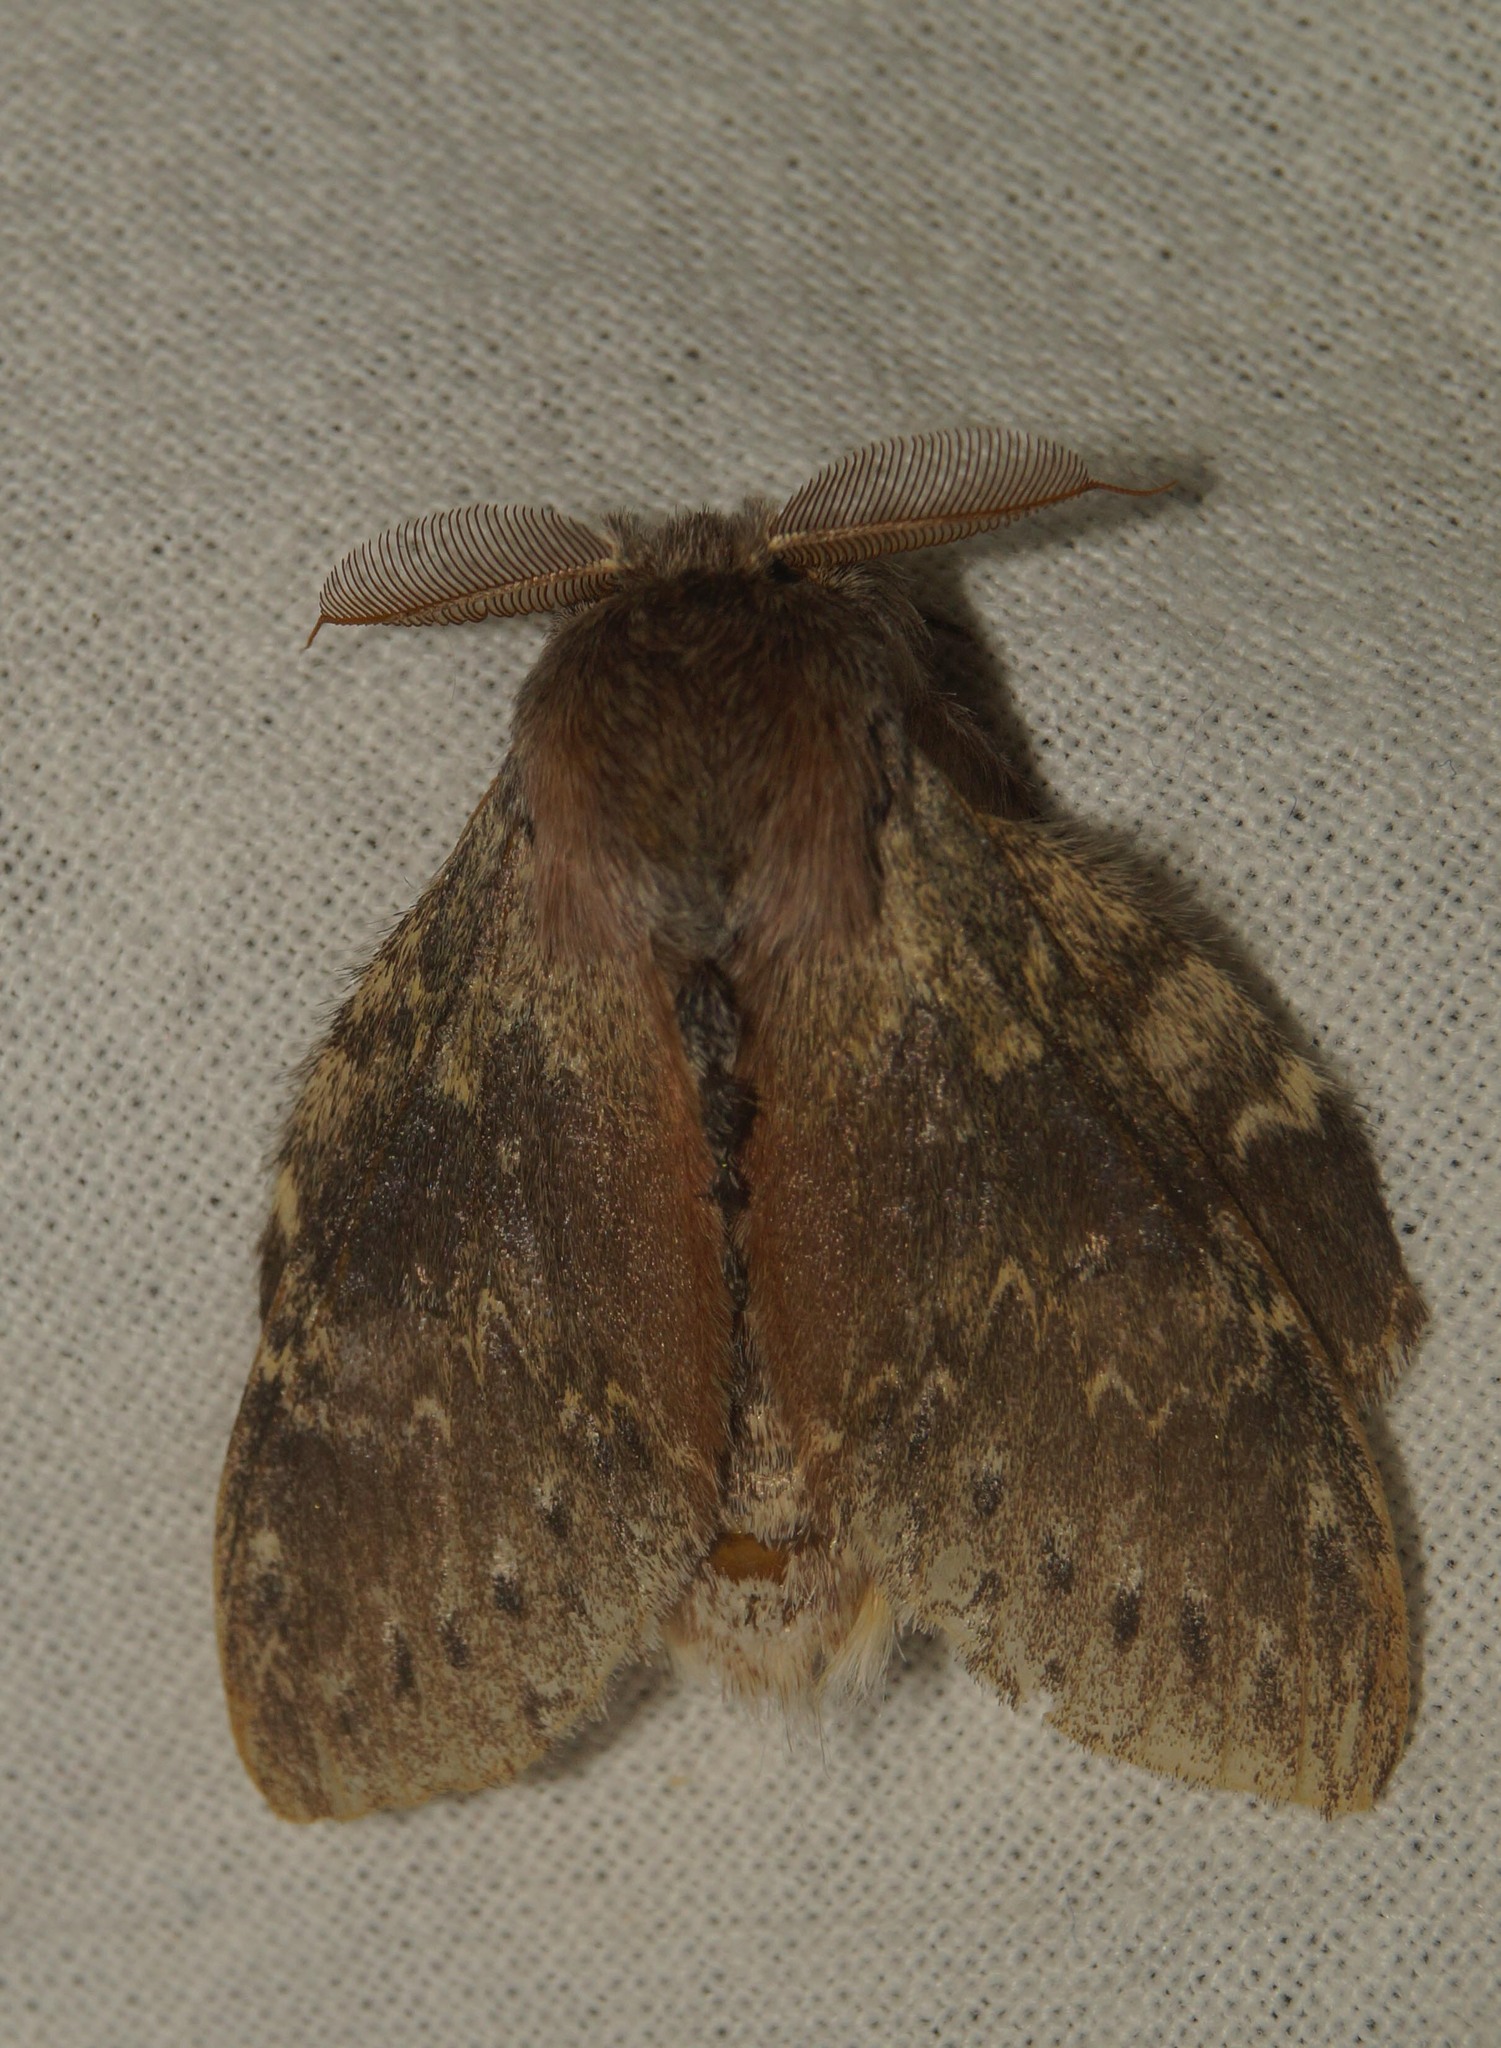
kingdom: Animalia
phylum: Arthropoda
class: Insecta
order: Lepidoptera
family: Notodontidae
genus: Stauropus
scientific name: Stauropus fagi
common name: Lobster moth
